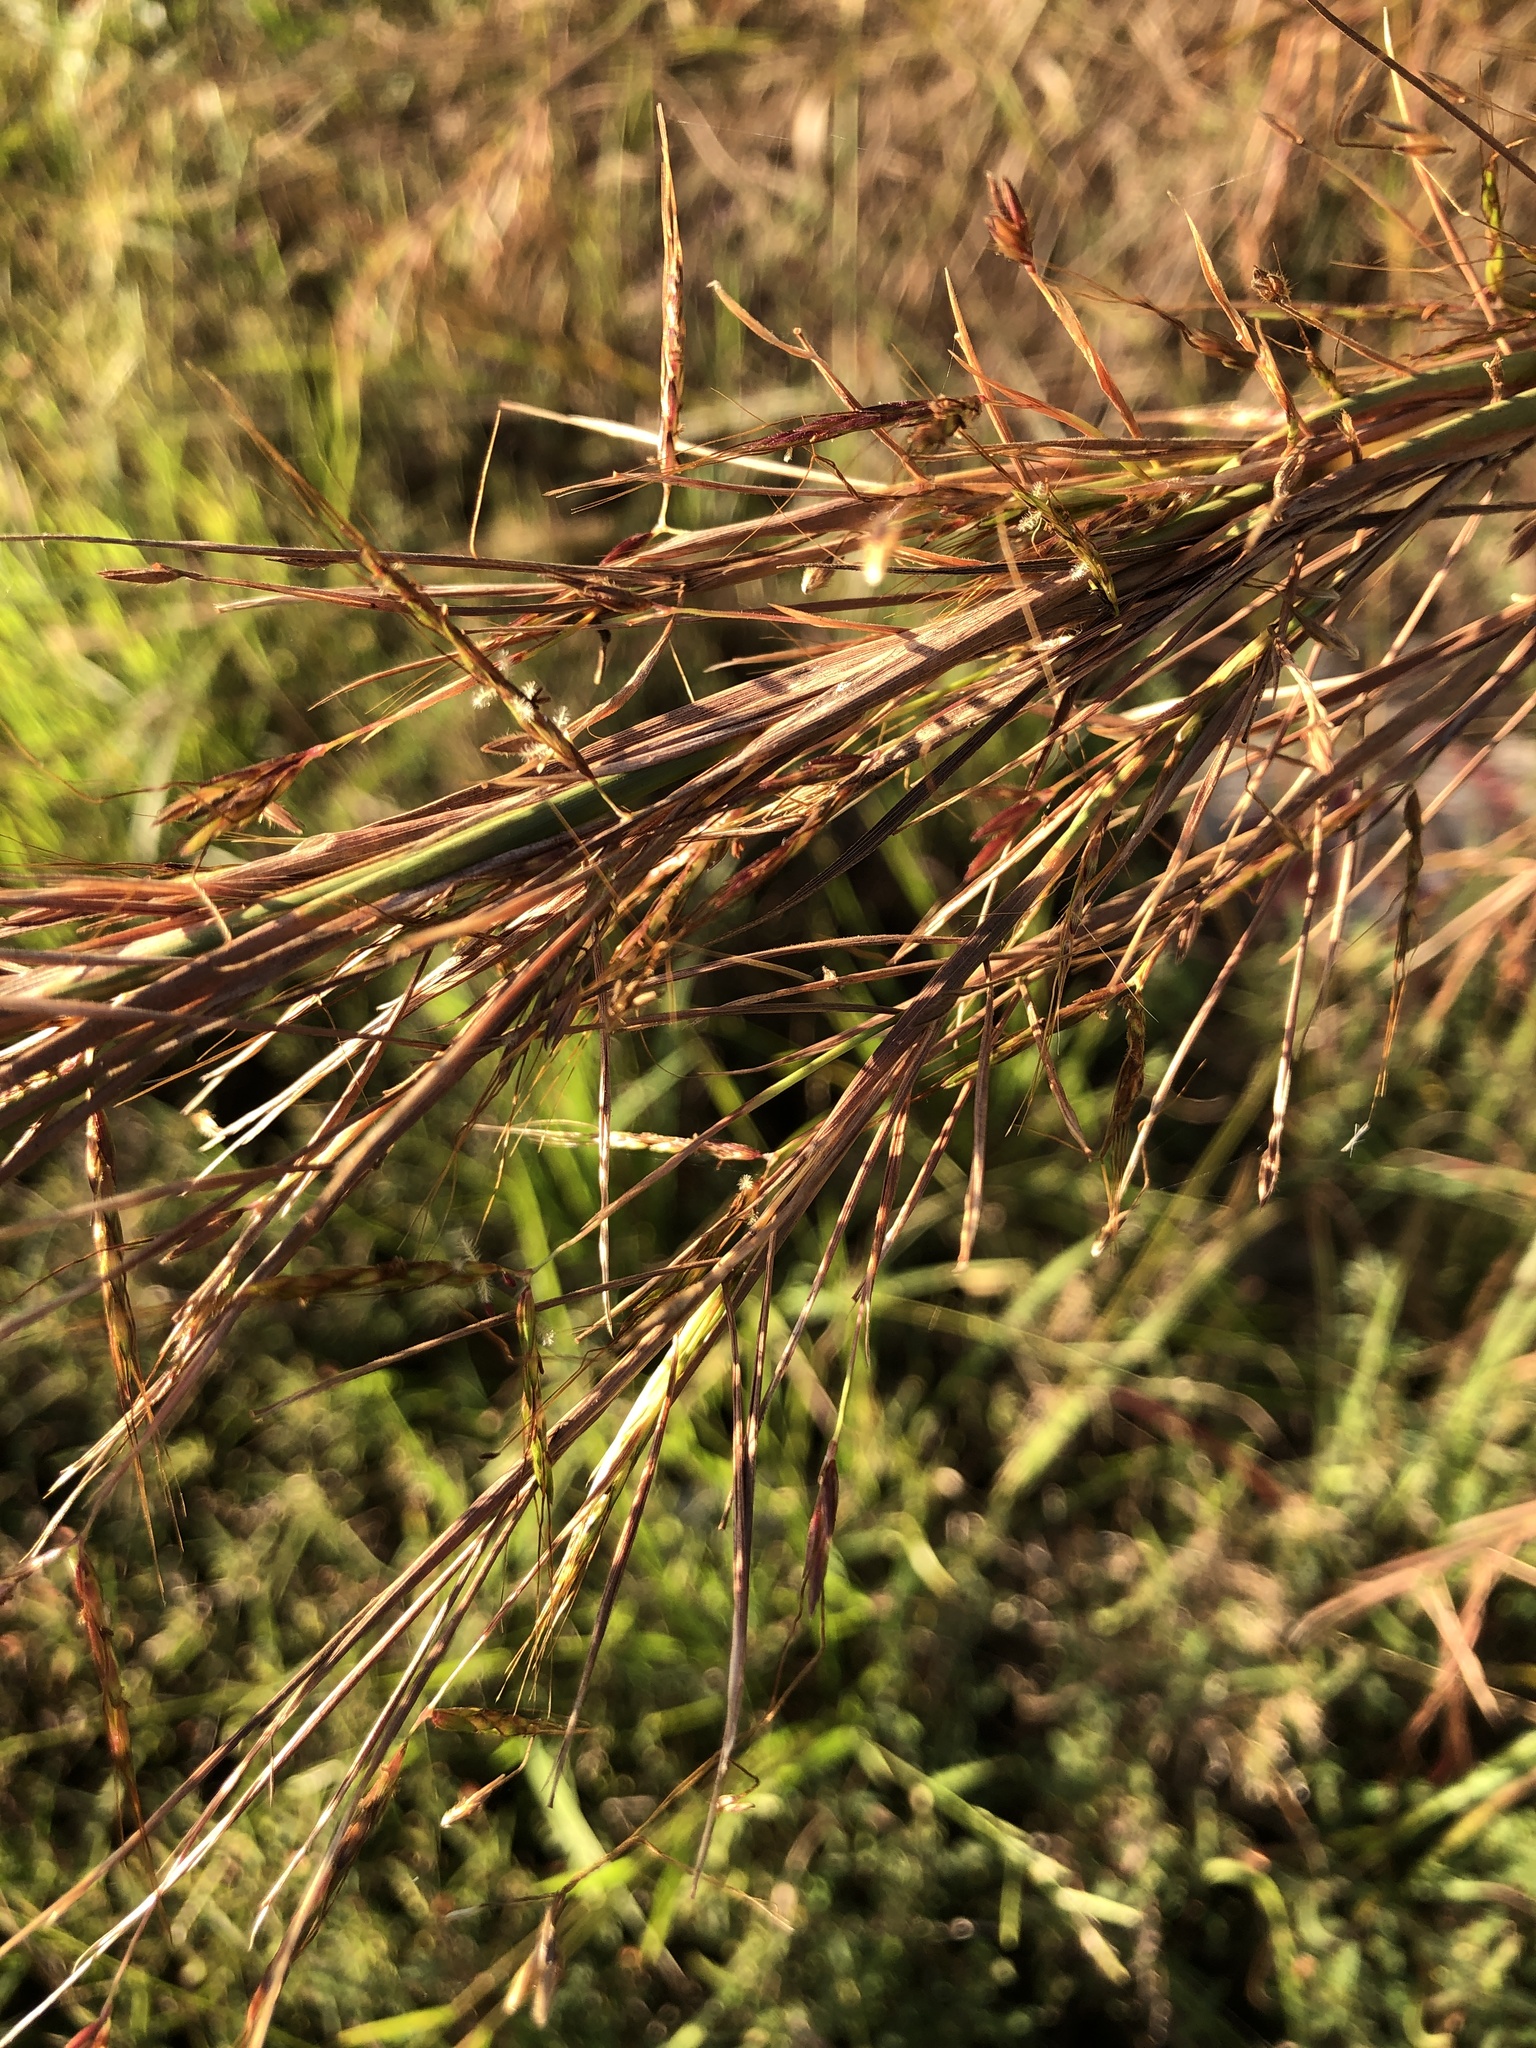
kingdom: Plantae
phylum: Tracheophyta
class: Liliopsida
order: Poales
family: Poaceae
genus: Hyparrhenia
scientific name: Hyparrhenia rufa
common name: Jaraguagrass
